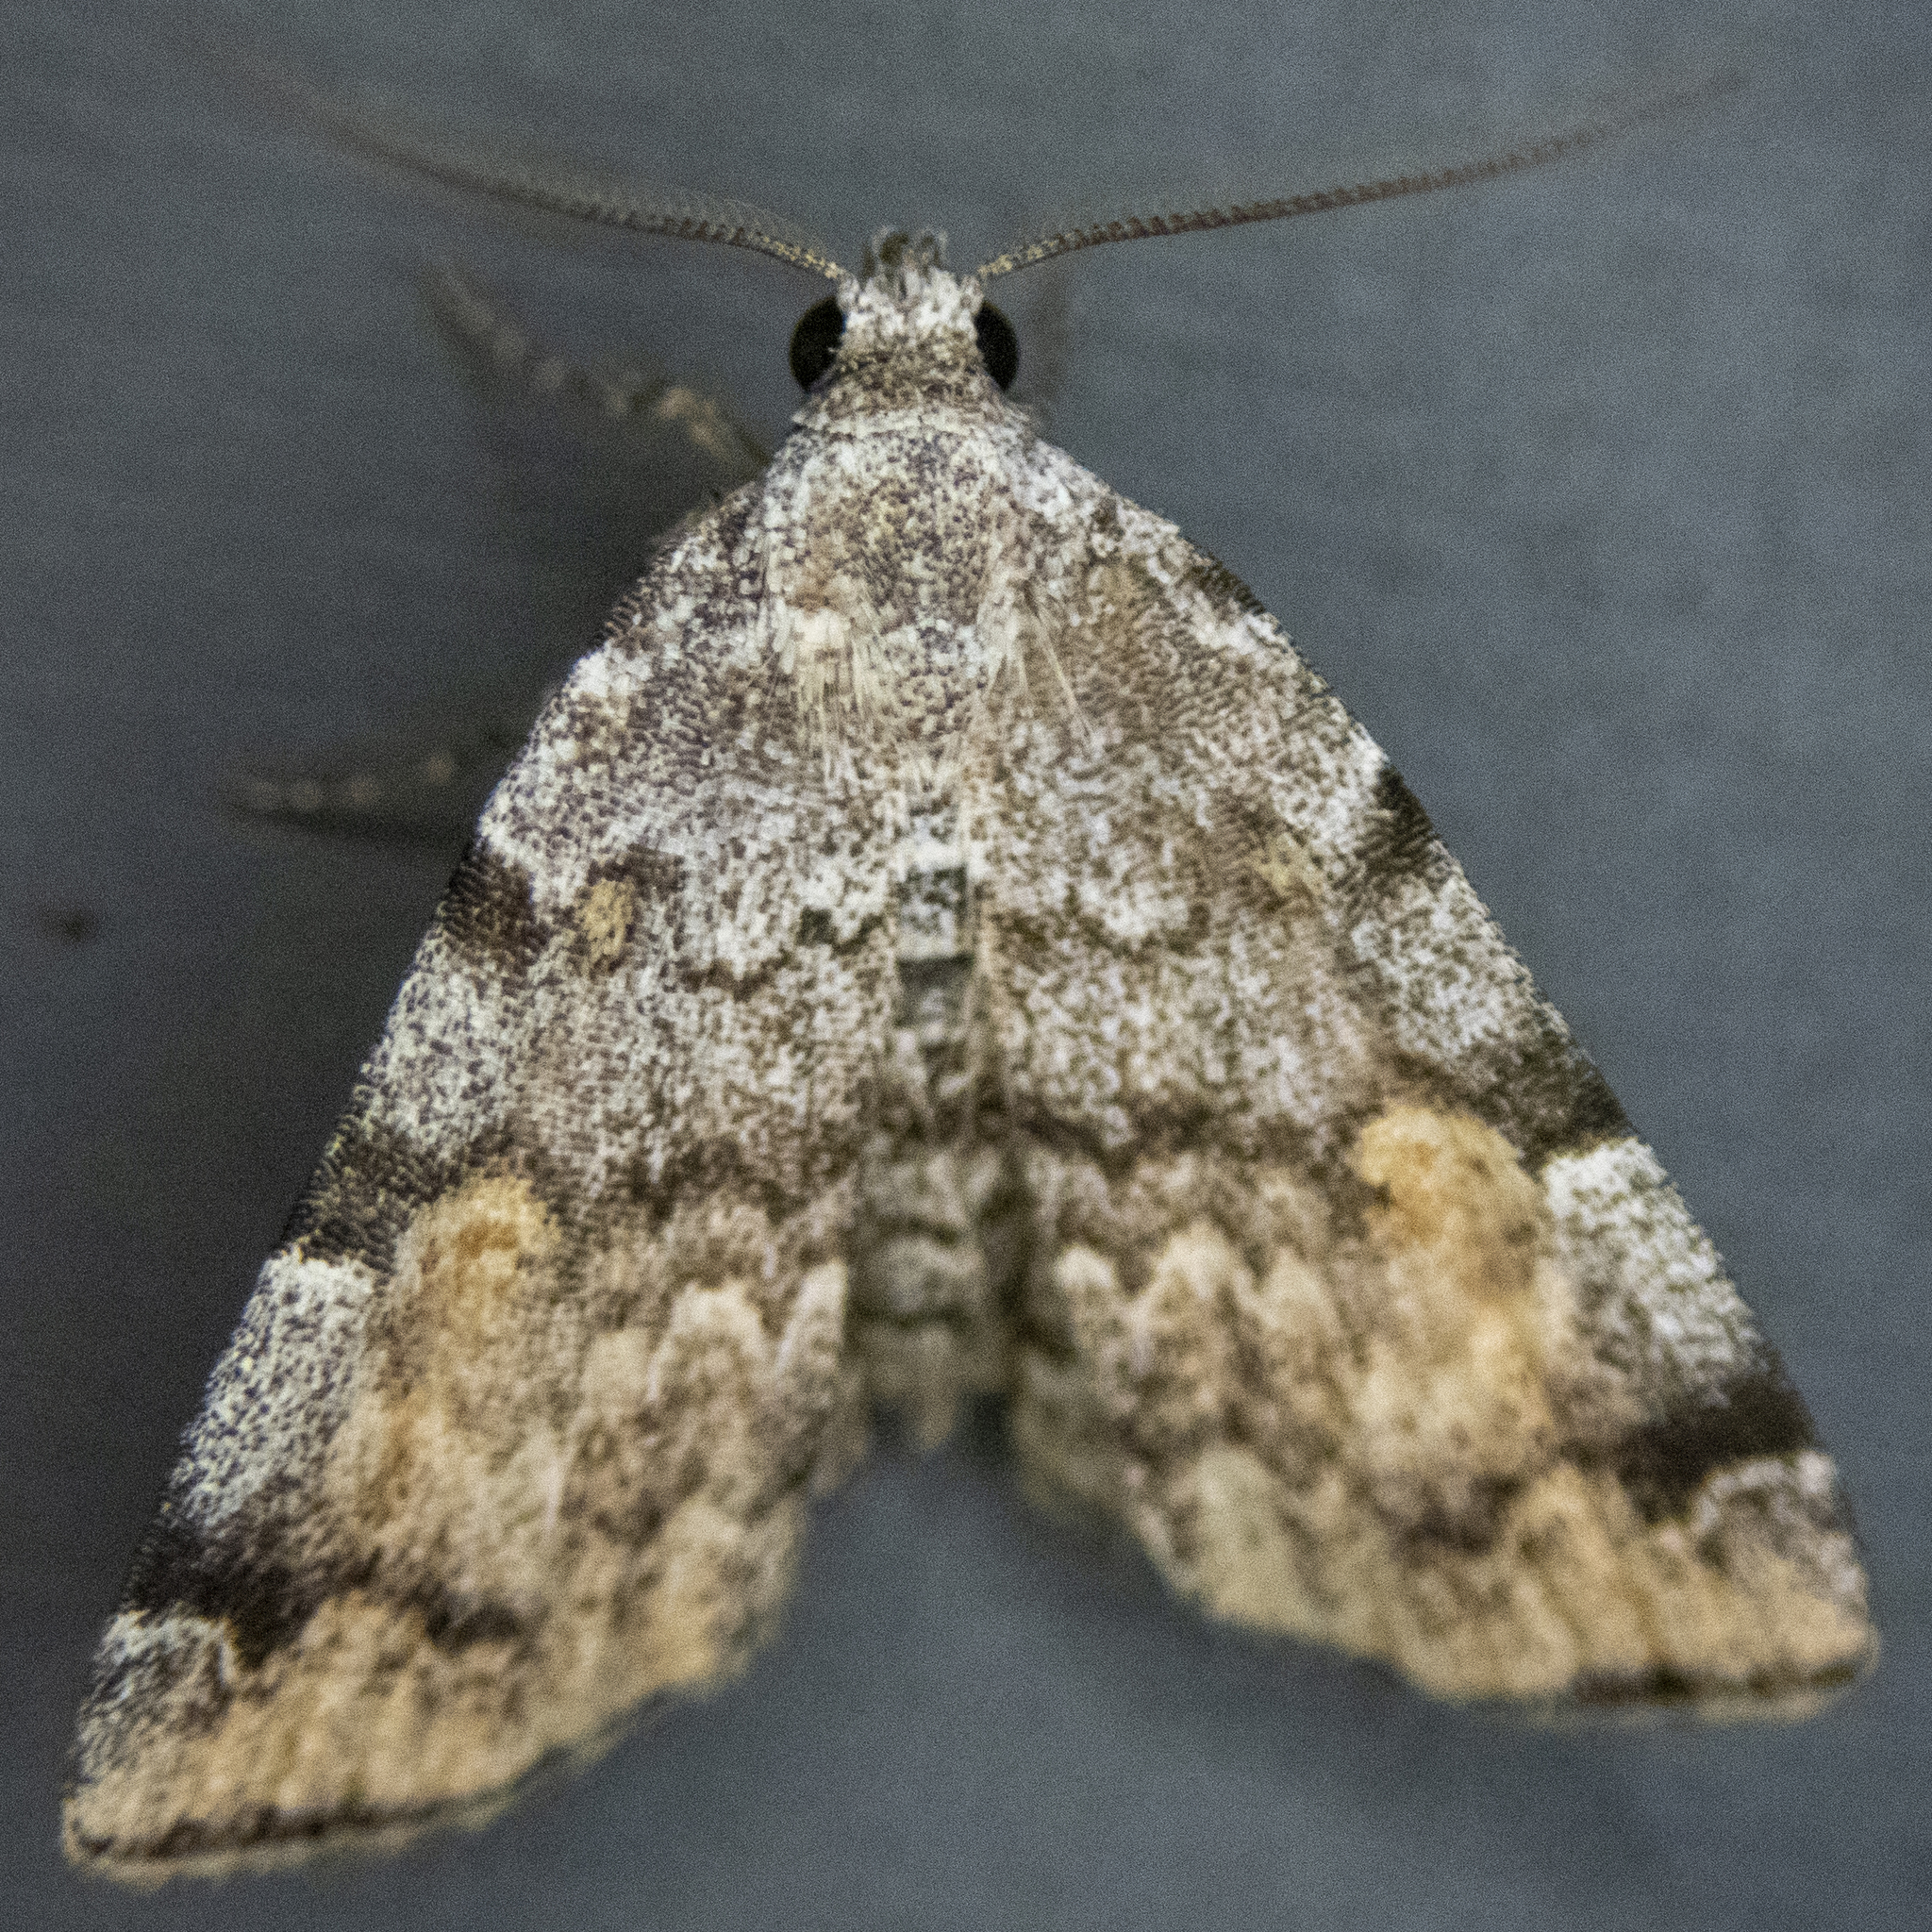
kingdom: Animalia
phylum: Arthropoda
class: Insecta
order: Lepidoptera
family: Erebidae
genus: Idia
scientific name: Idia americalis
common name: American idia moth
